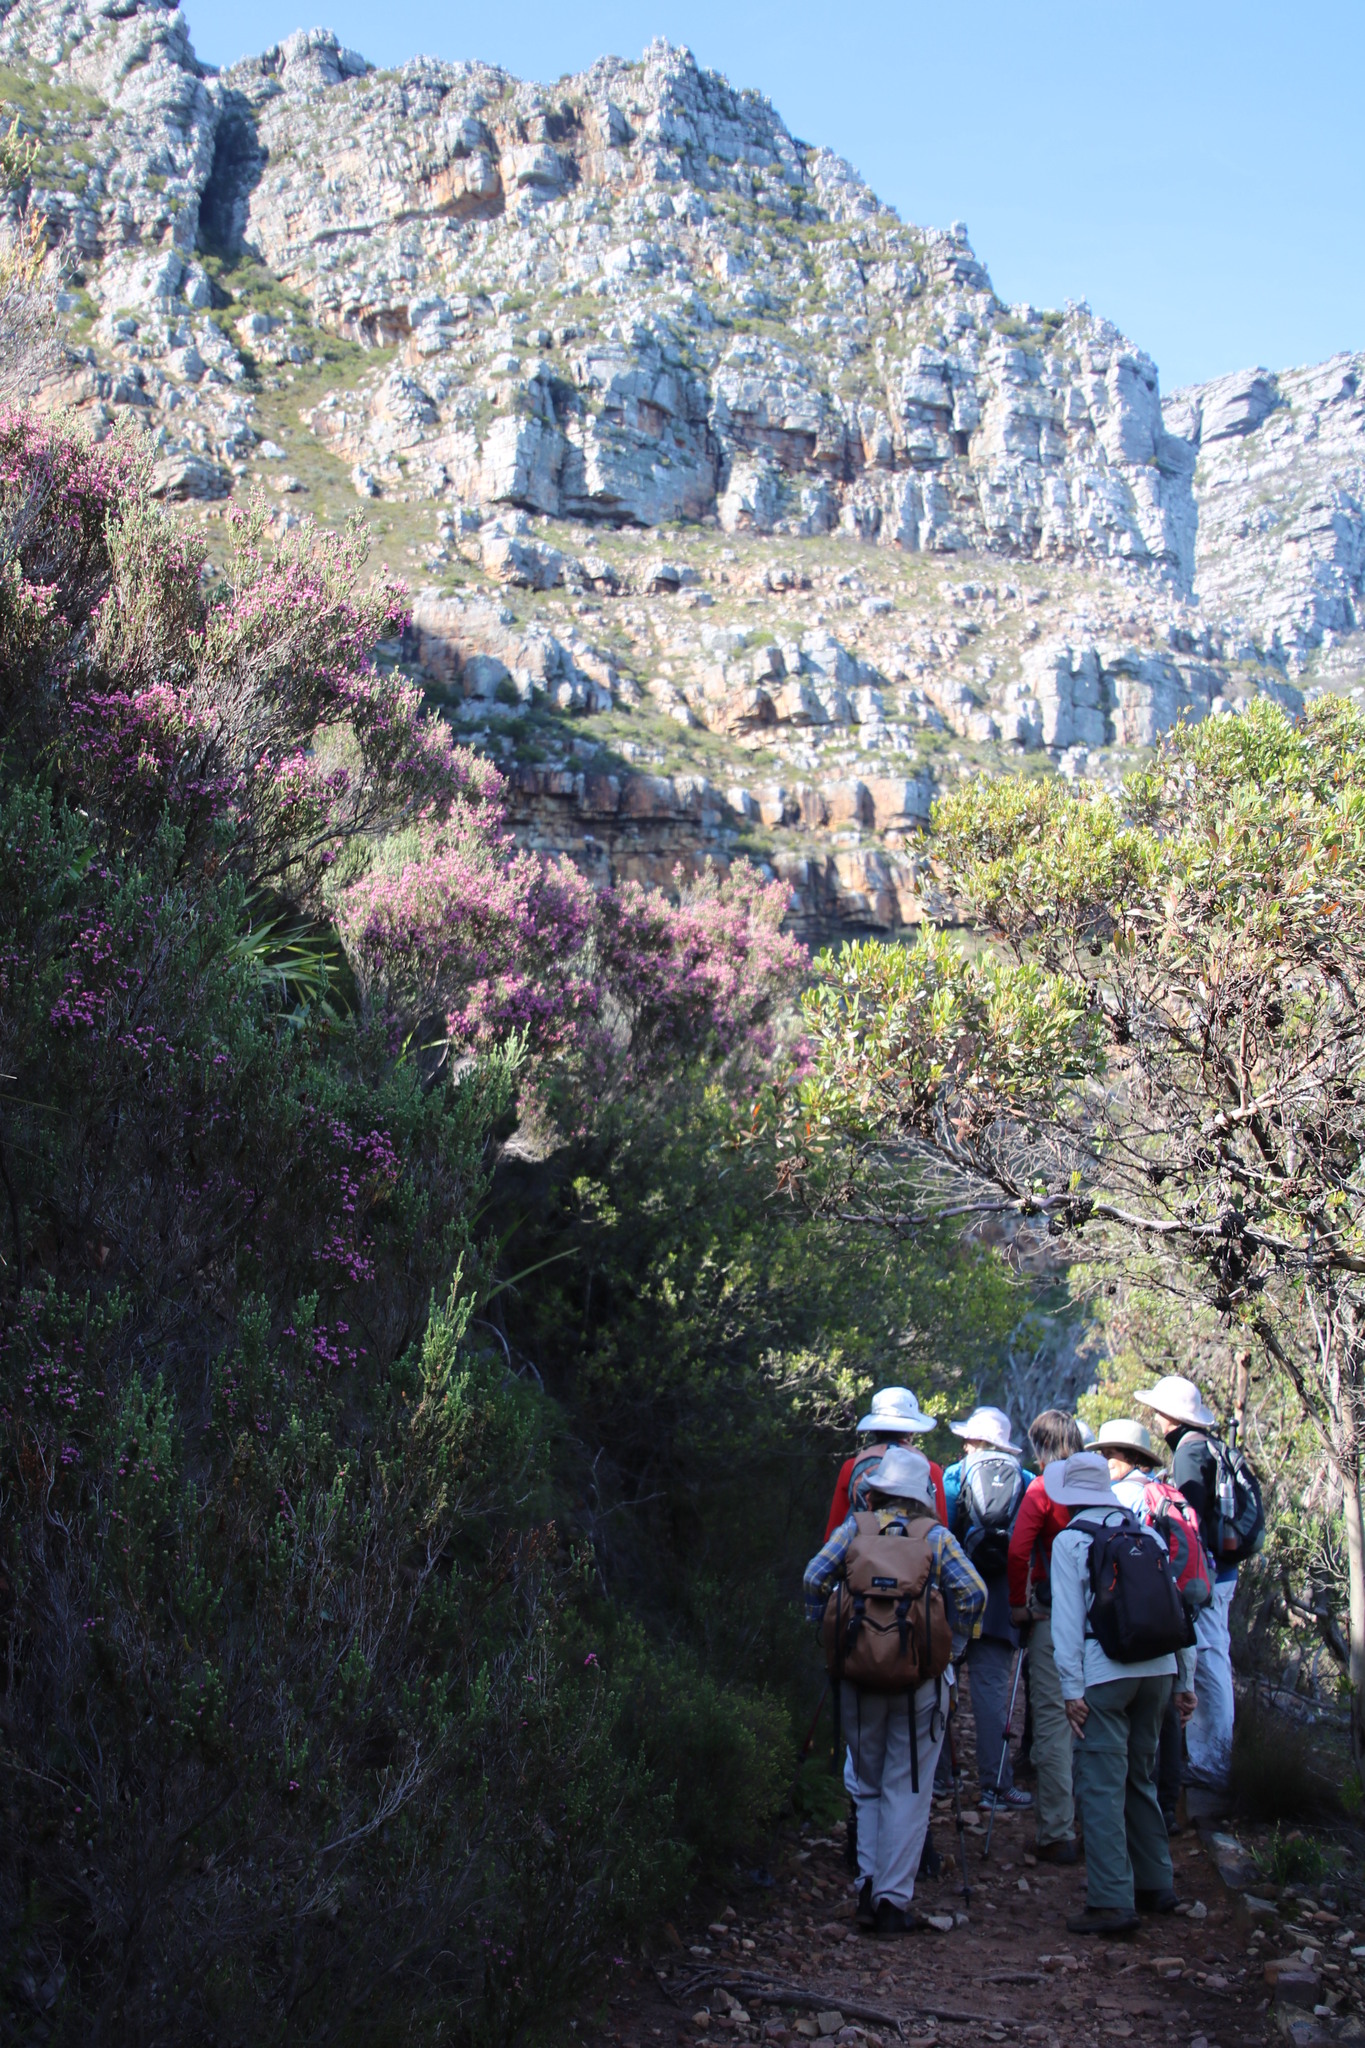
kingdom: Plantae
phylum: Tracheophyta
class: Magnoliopsida
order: Ericales
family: Ericaceae
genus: Erica
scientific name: Erica baccans
